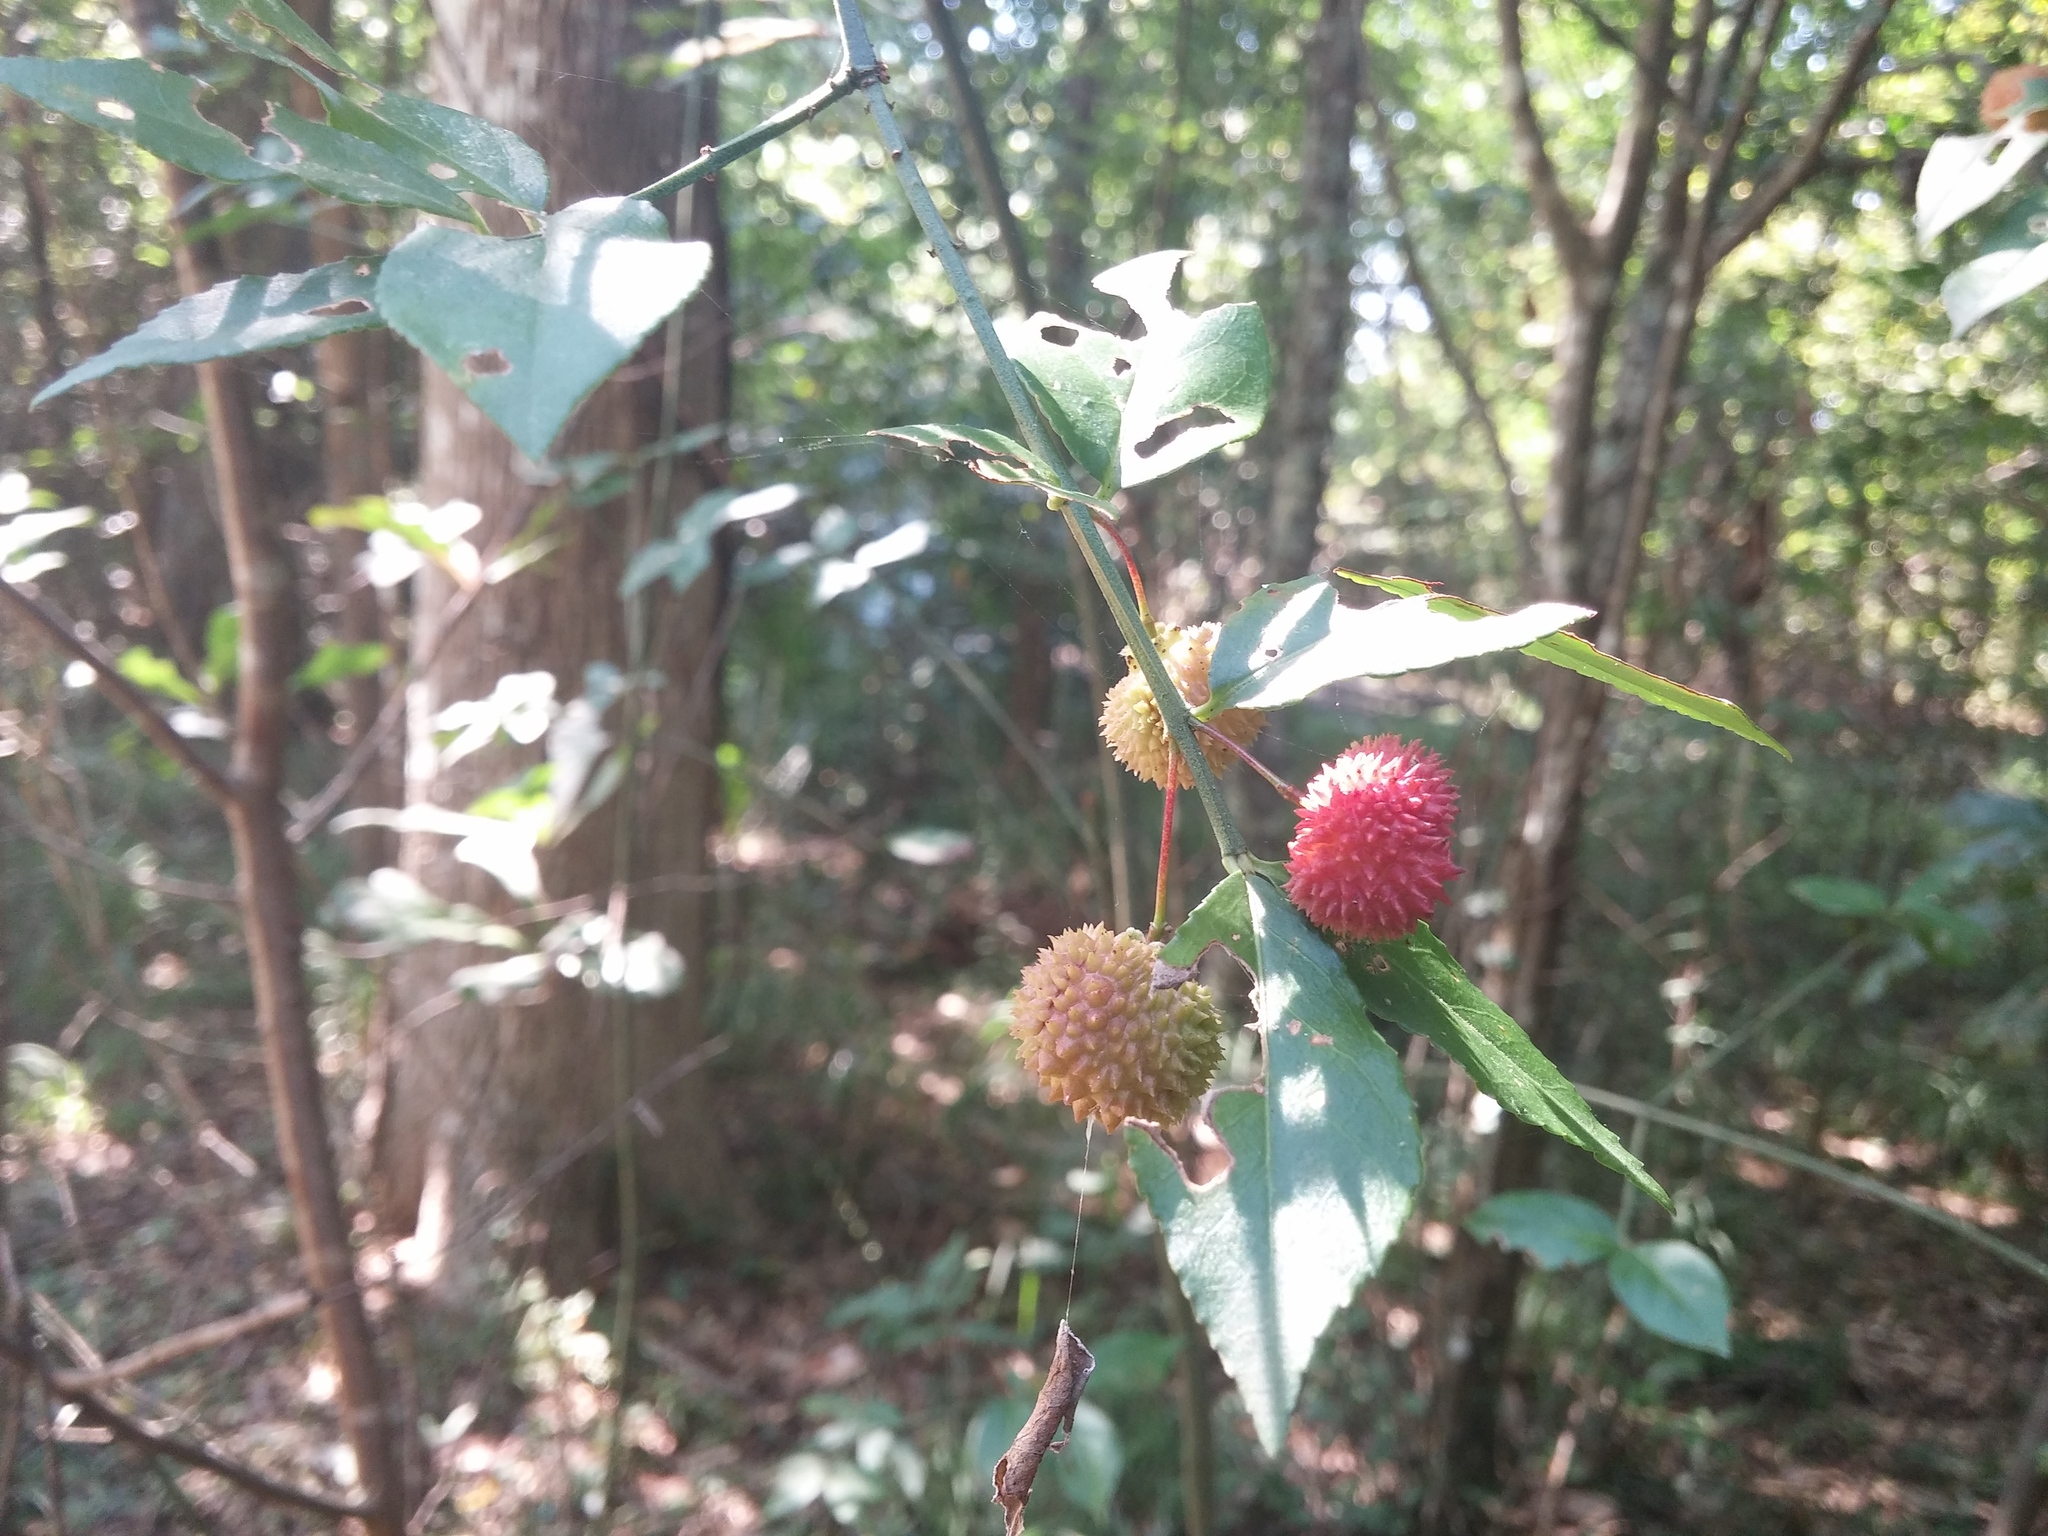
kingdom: Plantae
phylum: Tracheophyta
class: Magnoliopsida
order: Celastrales
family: Celastraceae
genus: Euonymus
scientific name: Euonymus americanus
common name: Bursting-heart
